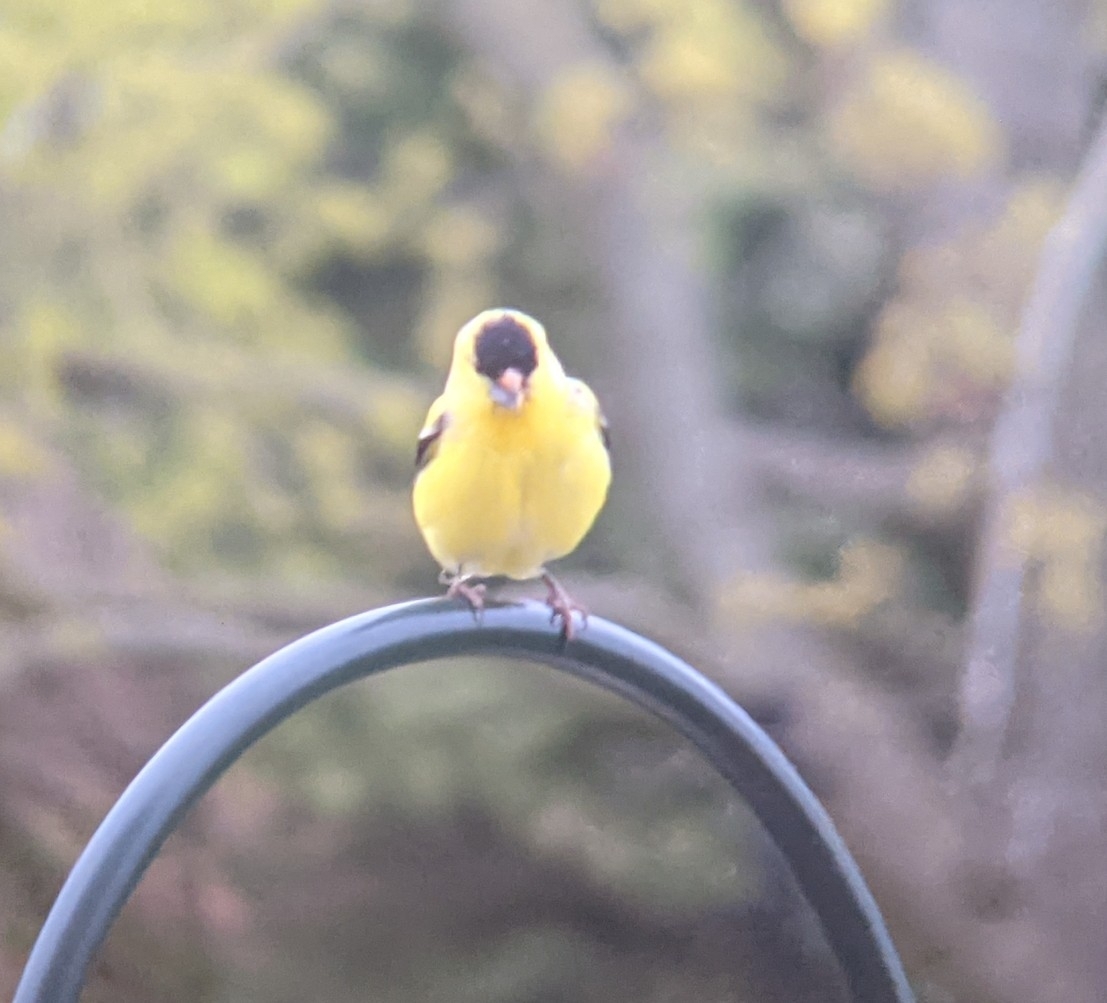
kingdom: Animalia
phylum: Chordata
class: Aves
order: Passeriformes
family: Fringillidae
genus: Spinus
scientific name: Spinus tristis
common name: American goldfinch
